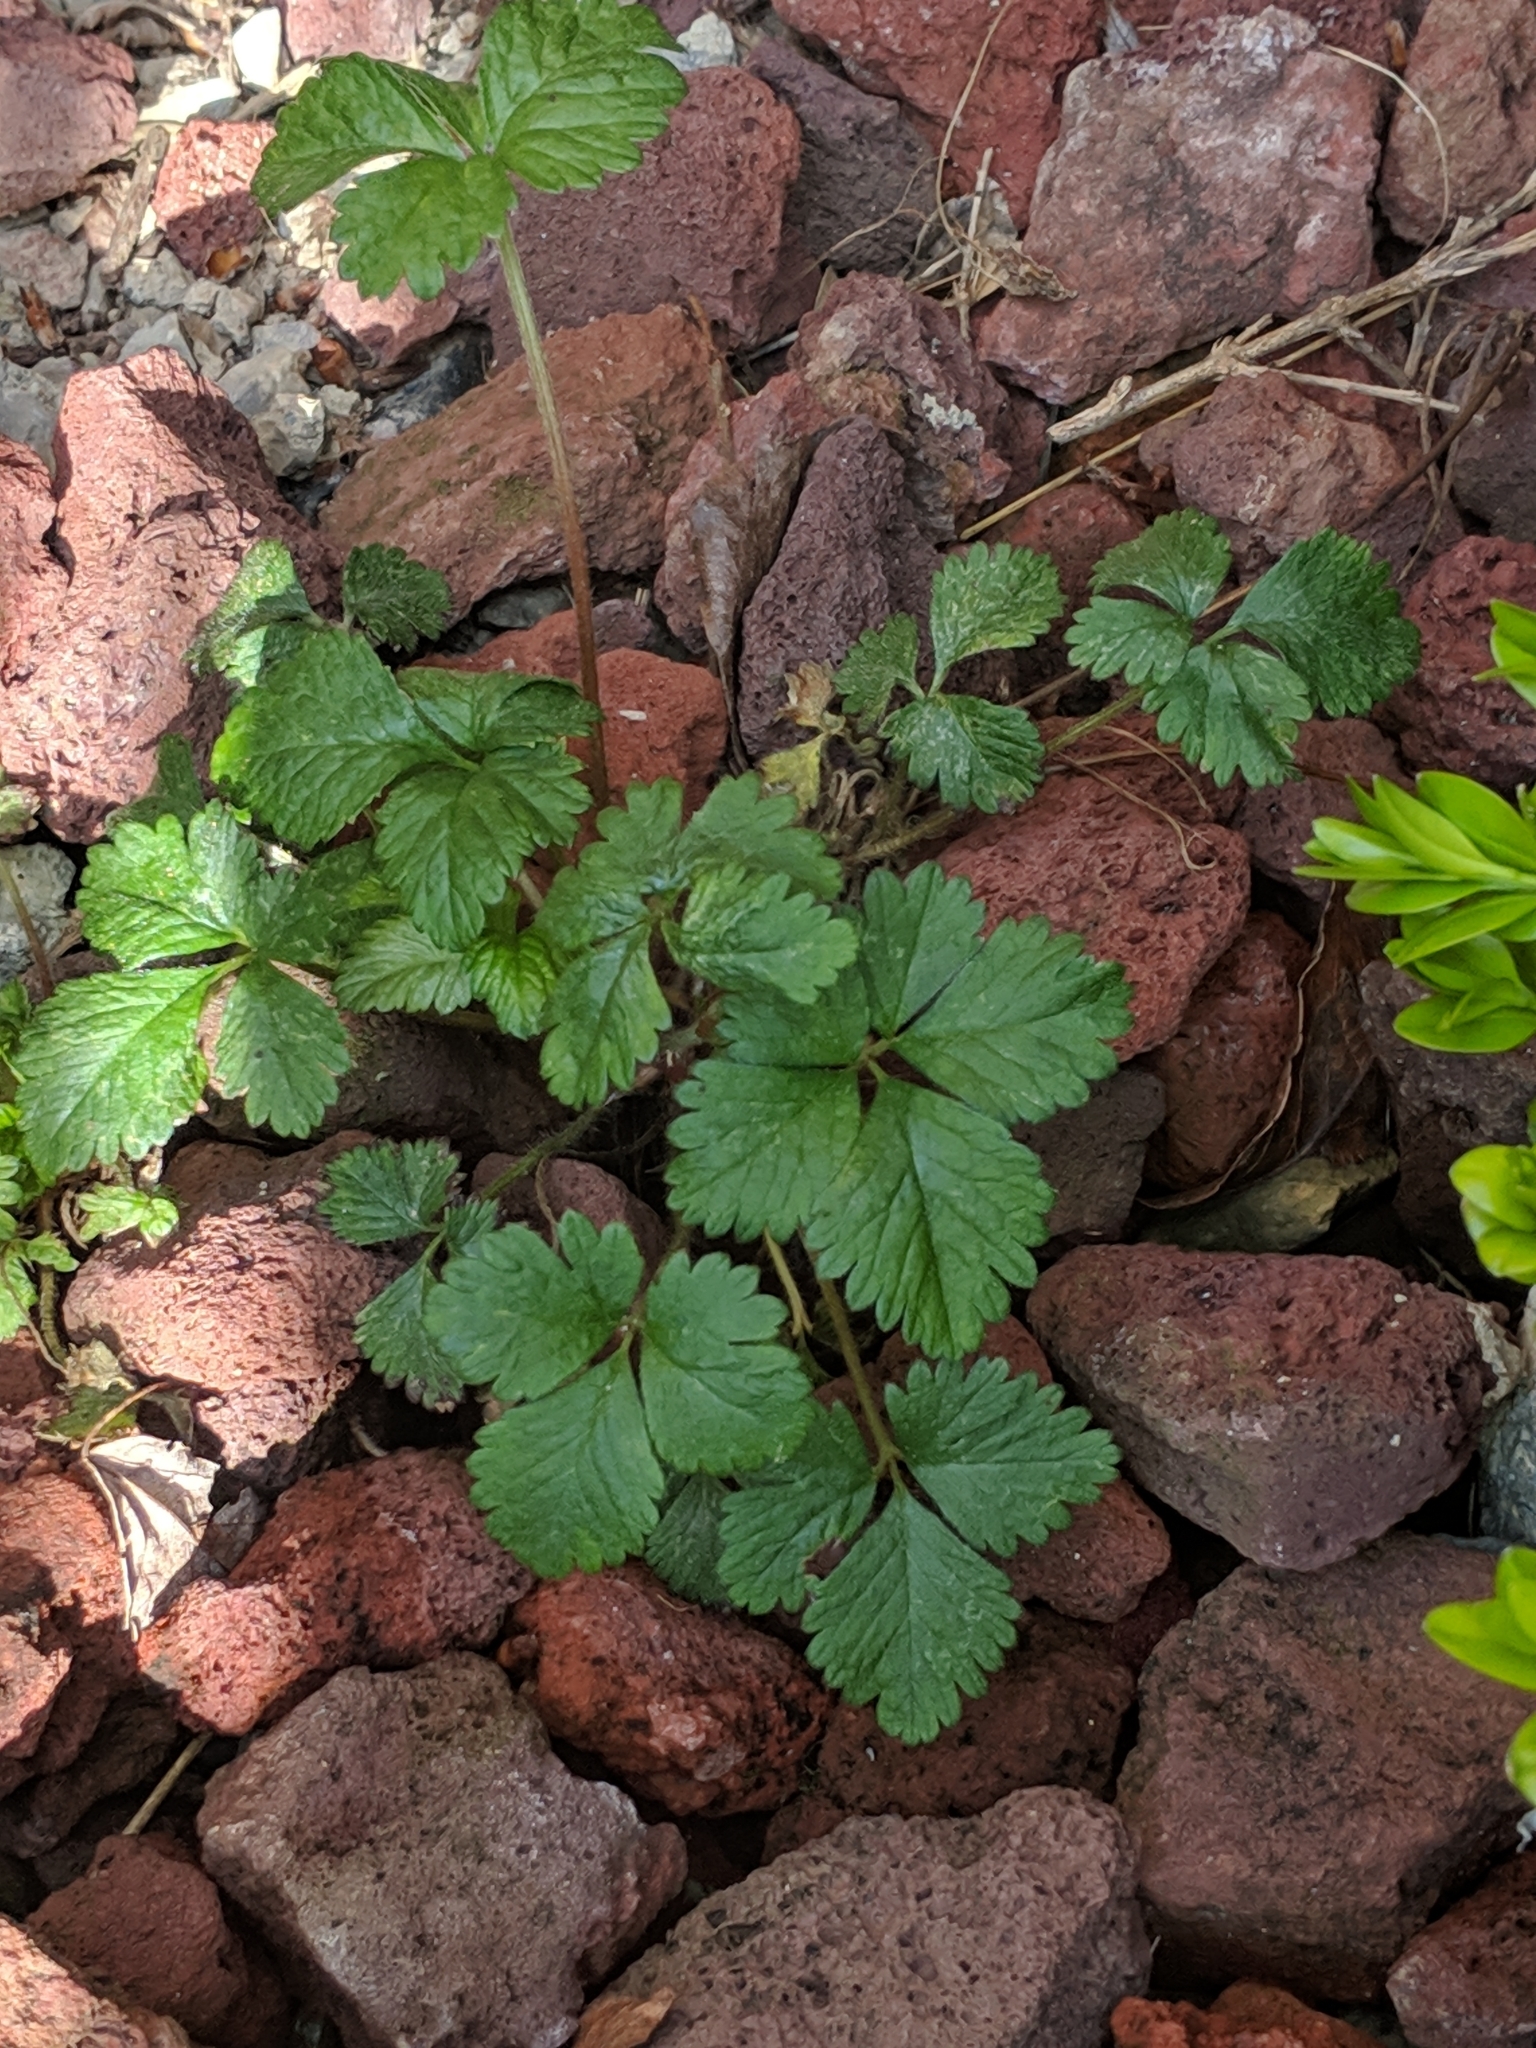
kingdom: Plantae
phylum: Tracheophyta
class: Magnoliopsida
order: Rosales
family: Rosaceae
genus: Potentilla
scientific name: Potentilla indica
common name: Yellow-flowered strawberry
